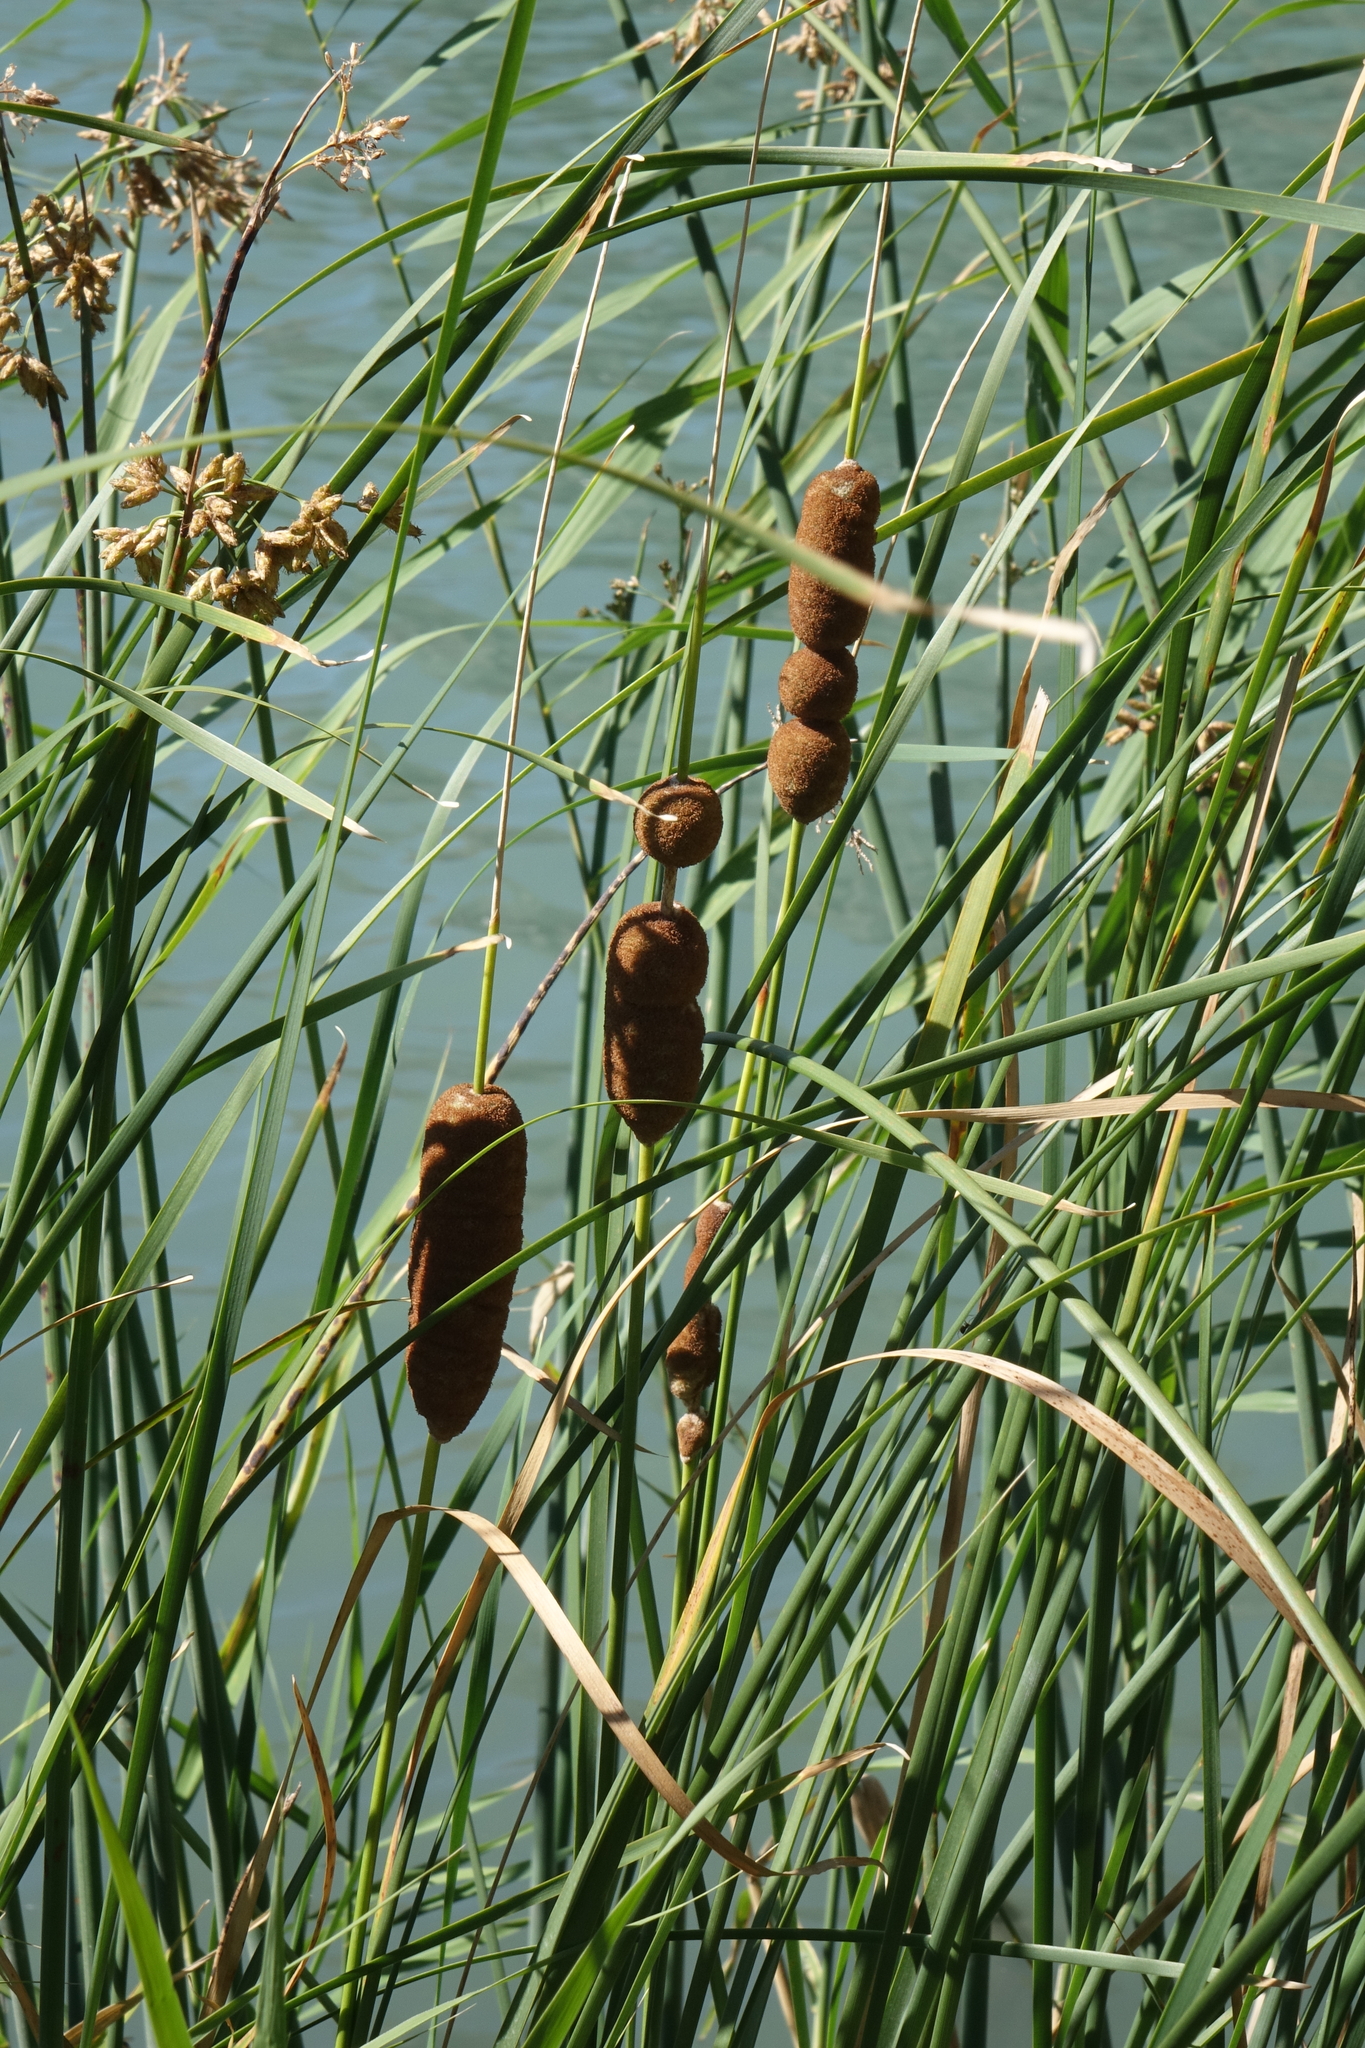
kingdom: Plantae
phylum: Tracheophyta
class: Liliopsida
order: Poales
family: Typhaceae
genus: Typha
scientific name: Typha laxmannii
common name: Laxman’s bulrush
